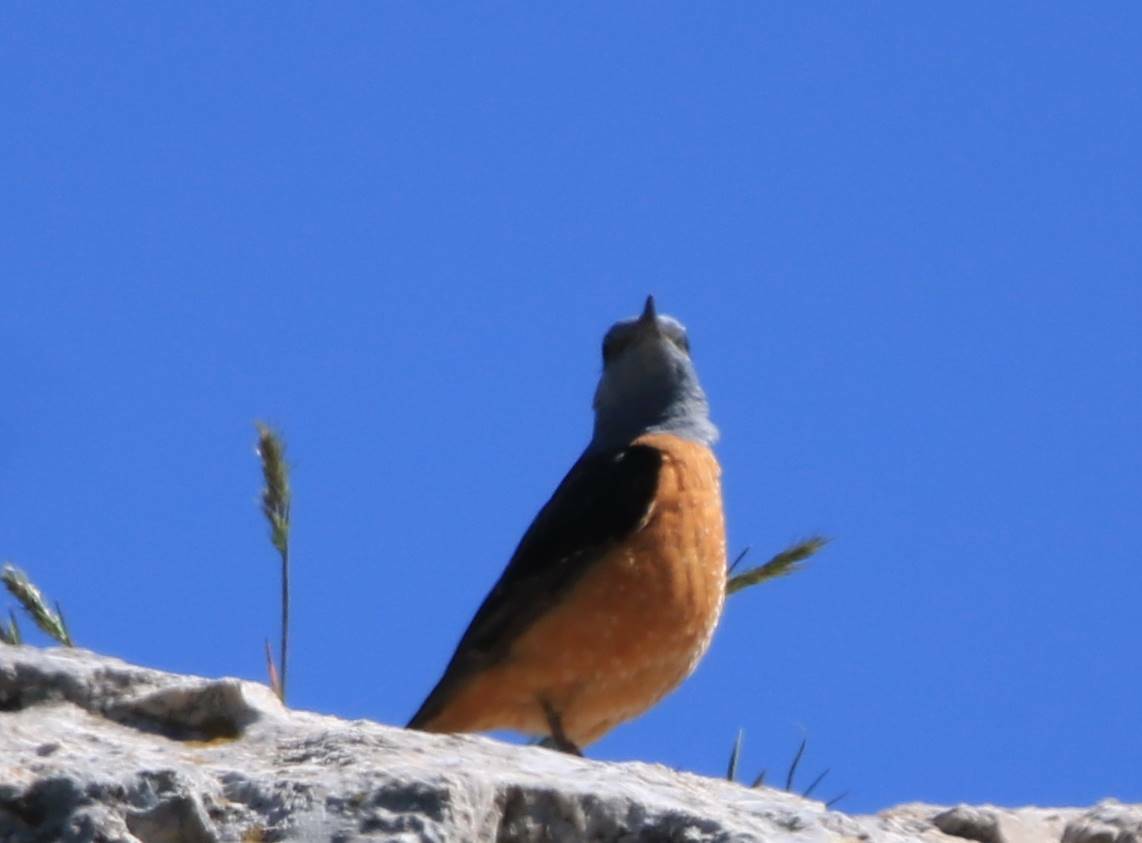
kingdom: Animalia
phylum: Chordata
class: Aves
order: Passeriformes
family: Muscicapidae
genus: Monticola
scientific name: Monticola saxatilis
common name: Rufous-tailed rock thrush
